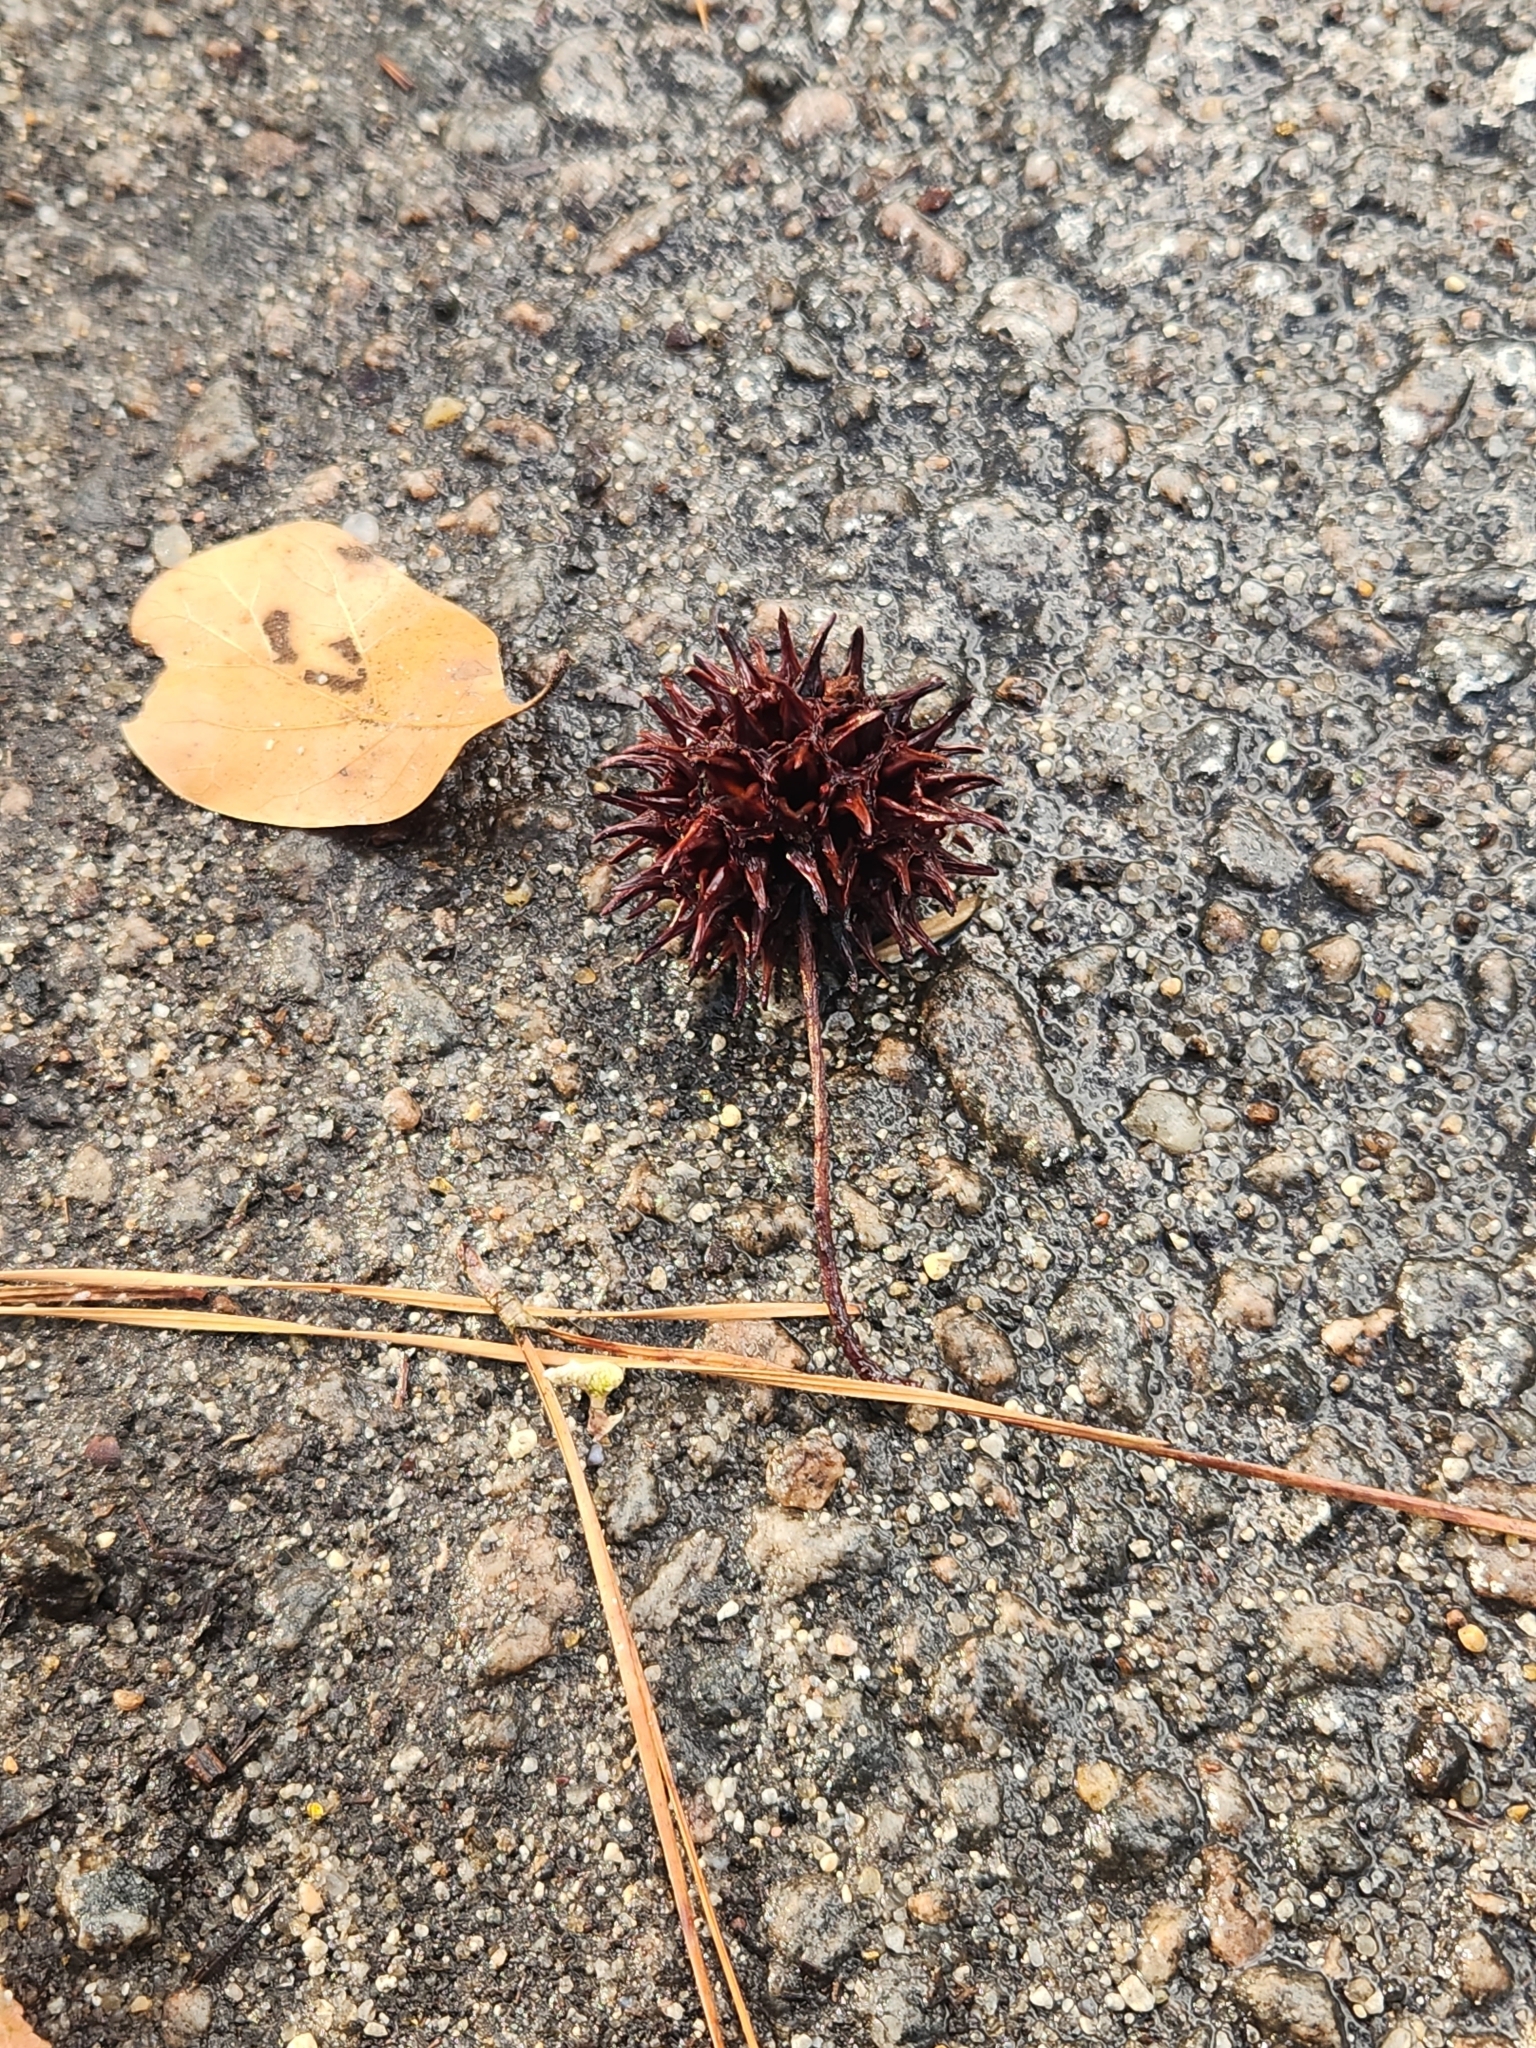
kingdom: Plantae
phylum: Tracheophyta
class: Magnoliopsida
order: Saxifragales
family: Altingiaceae
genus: Liquidambar
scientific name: Liquidambar styraciflua
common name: Sweet gum
